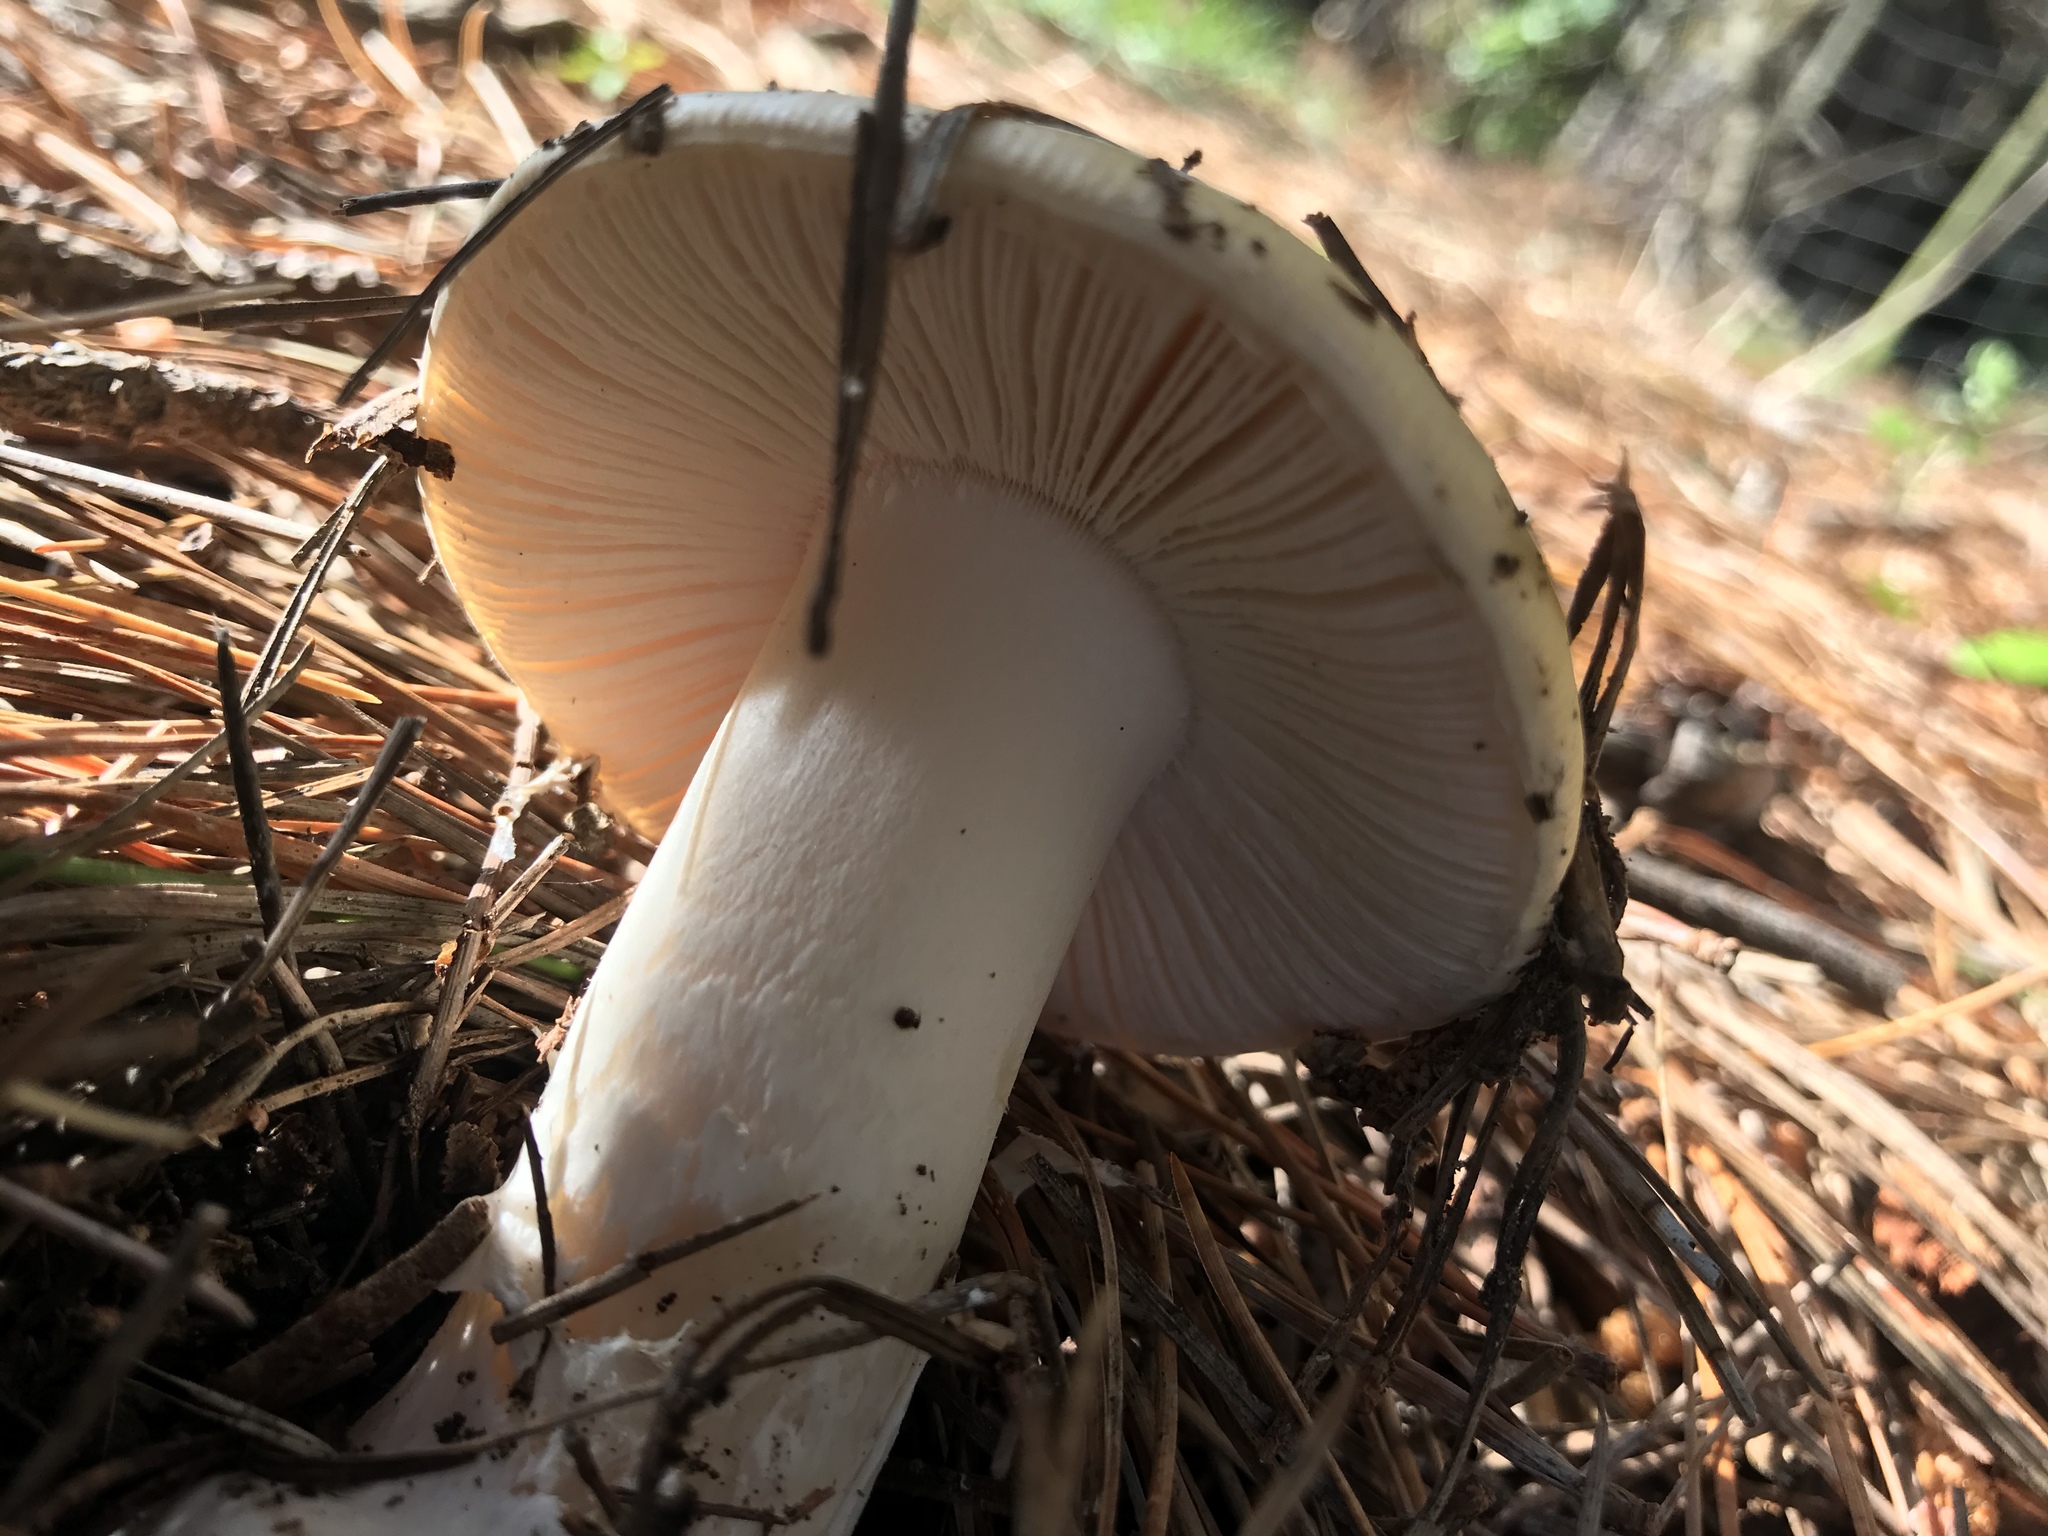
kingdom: Fungi
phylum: Basidiomycota
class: Agaricomycetes
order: Agaricales
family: Amanitaceae
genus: Amanita
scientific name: Amanita gemmata
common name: Jewelled amanita
